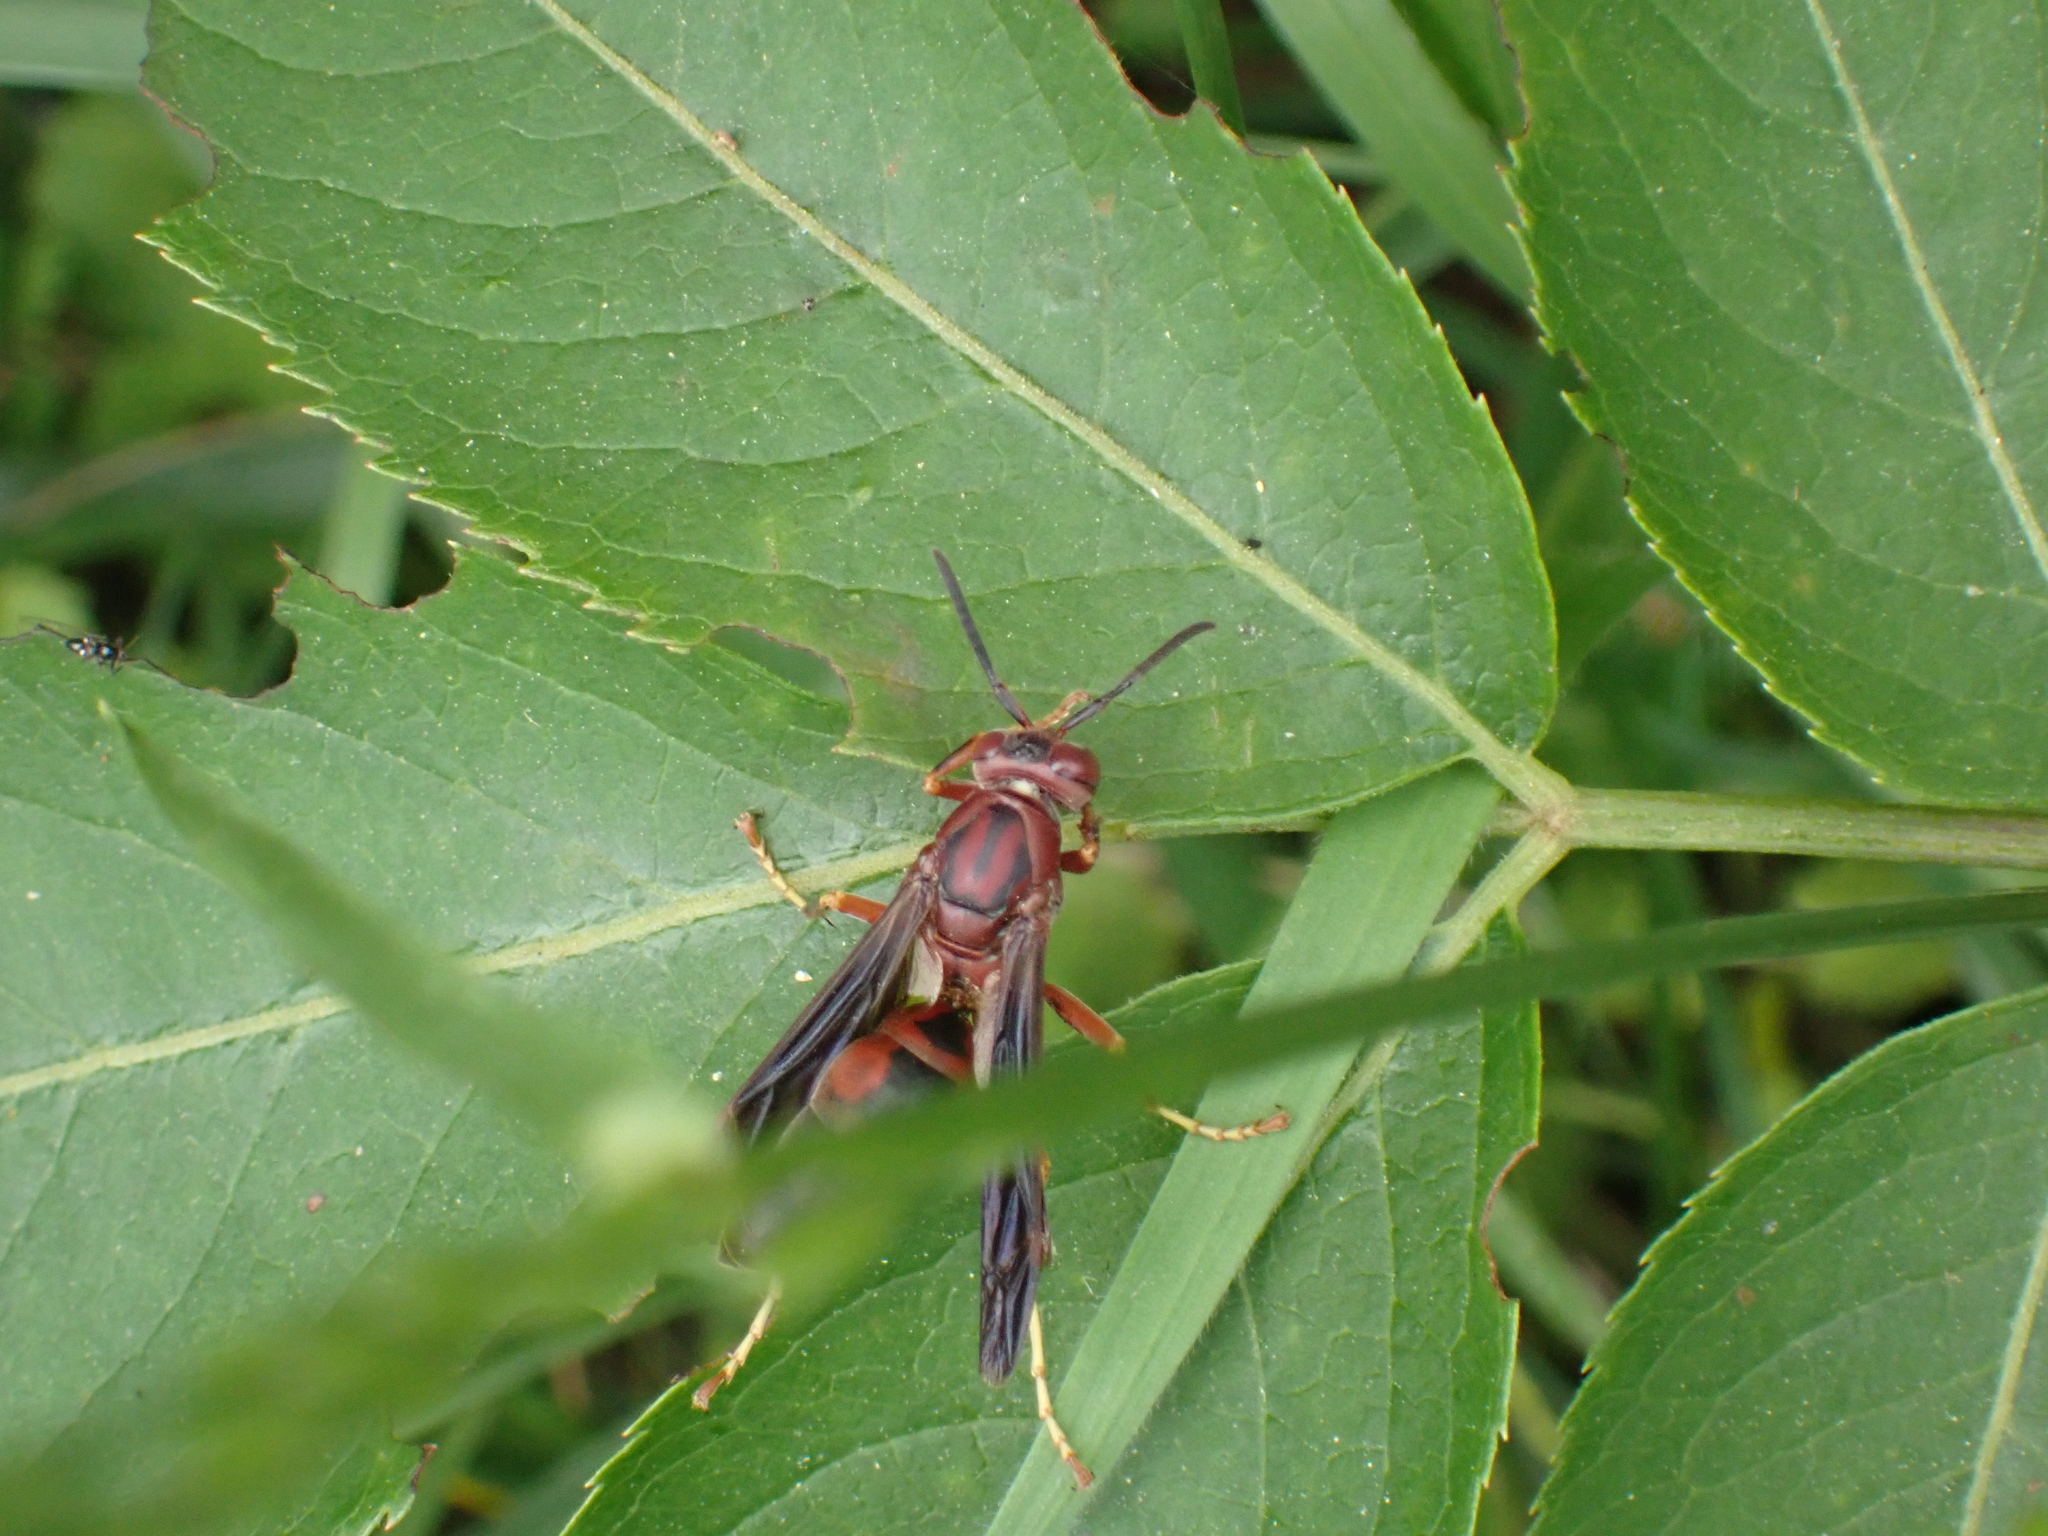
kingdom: Animalia
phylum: Arthropoda
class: Insecta
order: Hymenoptera
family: Eumenidae
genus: Polistes
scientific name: Polistes metricus
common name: Metric paper wasp
